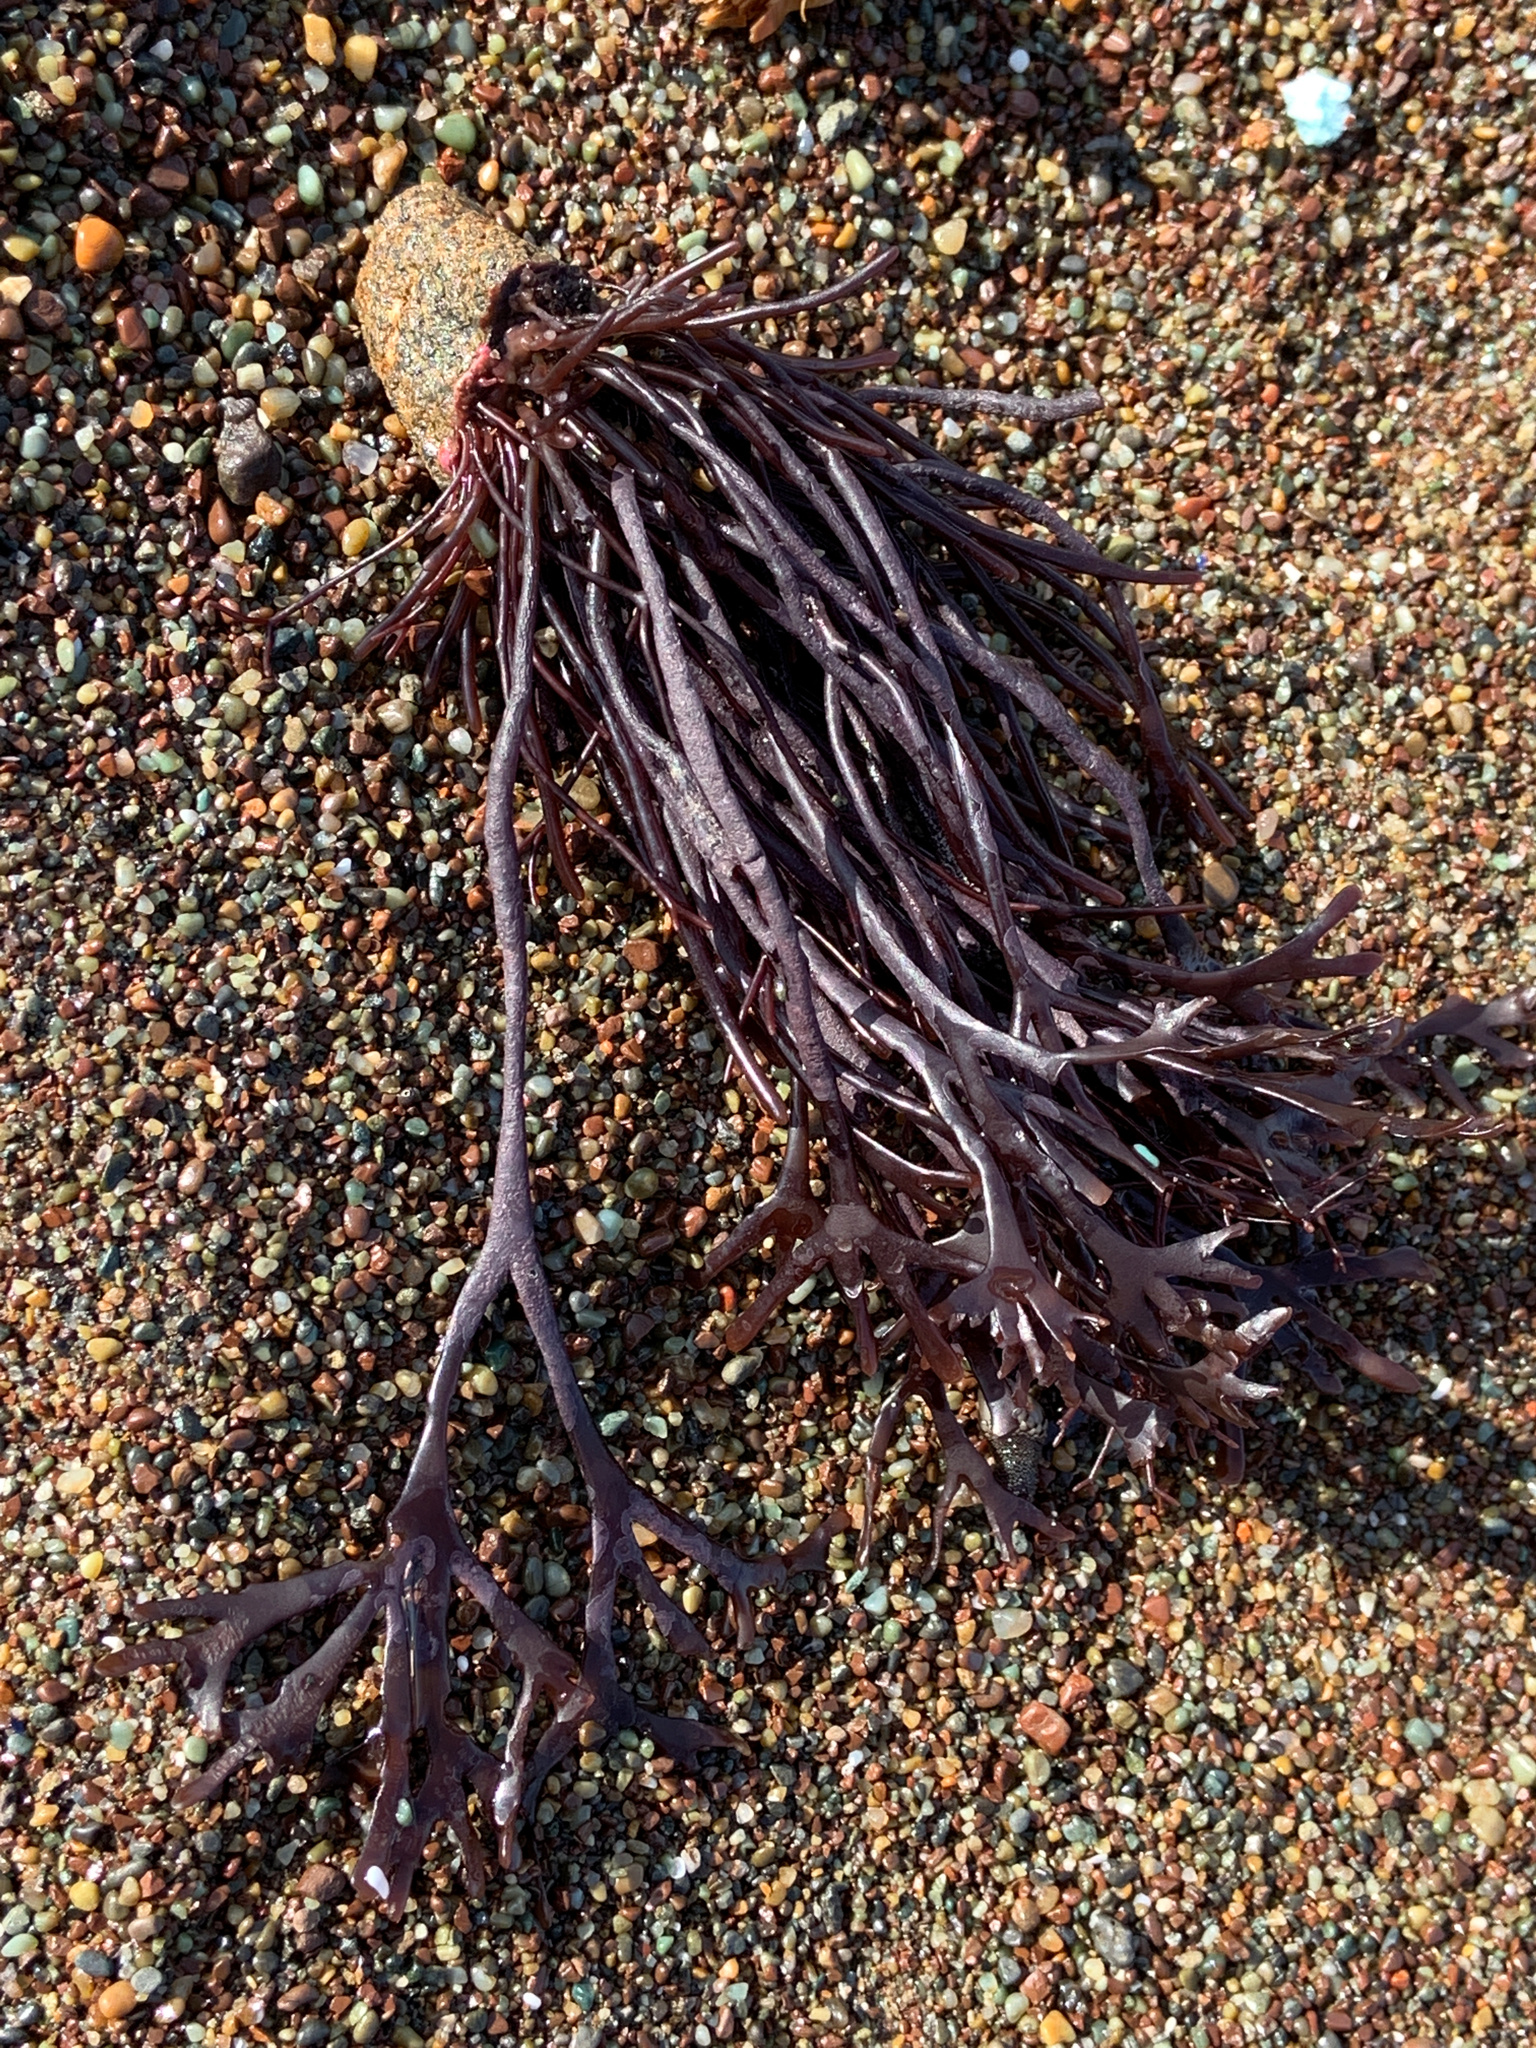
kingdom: Plantae
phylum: Rhodophyta
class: Florideophyceae
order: Gigartinales
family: Phyllophoraceae
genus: Ahnfeltiopsis
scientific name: Ahnfeltiopsis linearis
